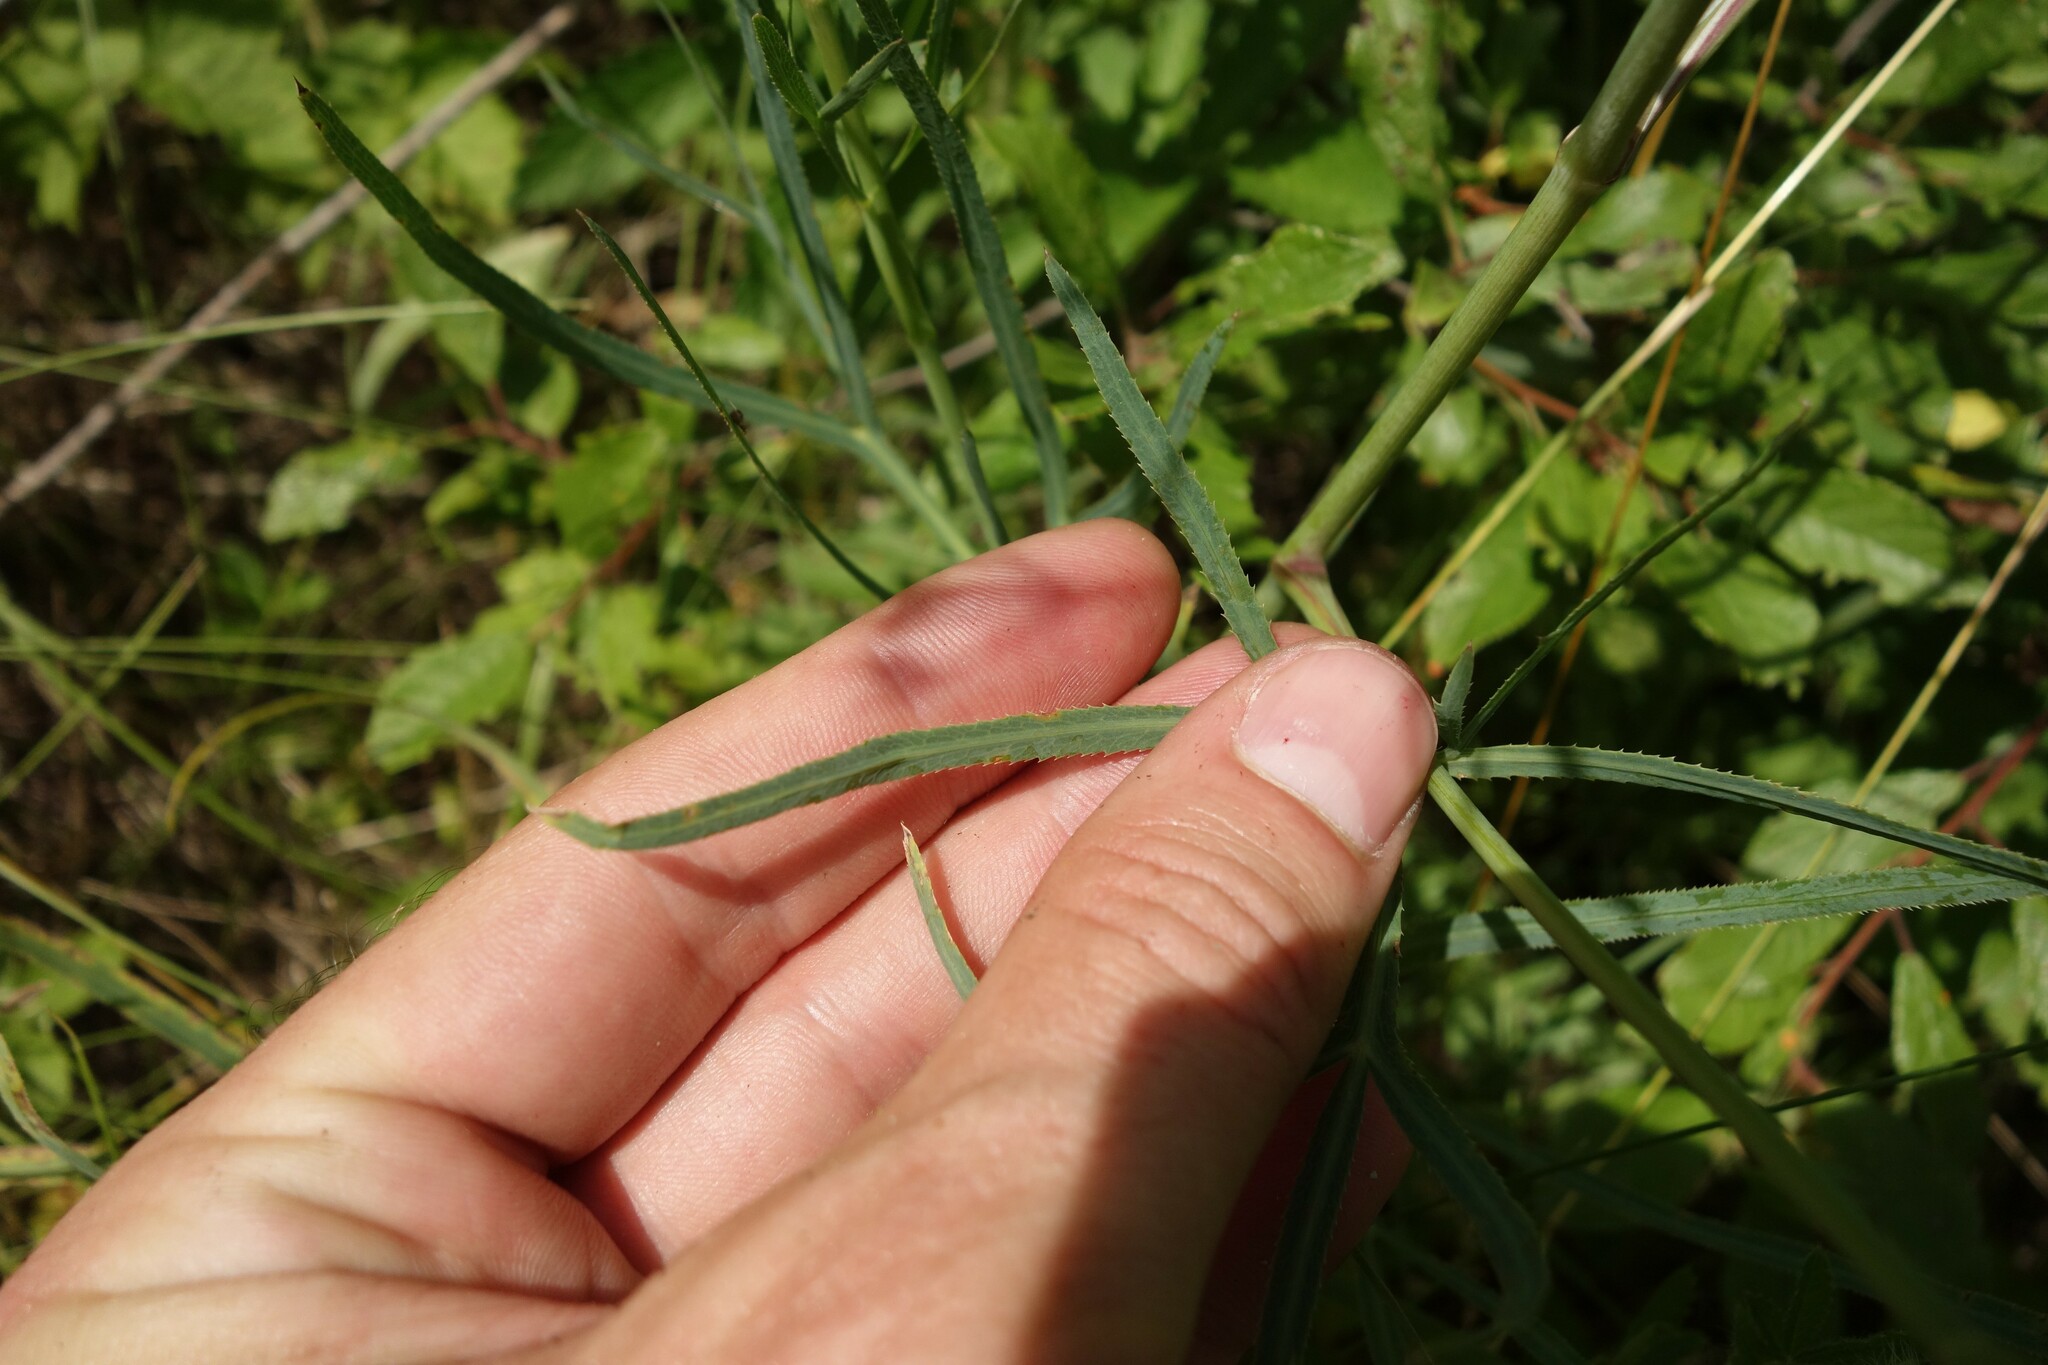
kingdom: Plantae
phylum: Tracheophyta
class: Magnoliopsida
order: Apiales
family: Apiaceae
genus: Falcaria
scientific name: Falcaria vulgaris
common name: Longleaf
